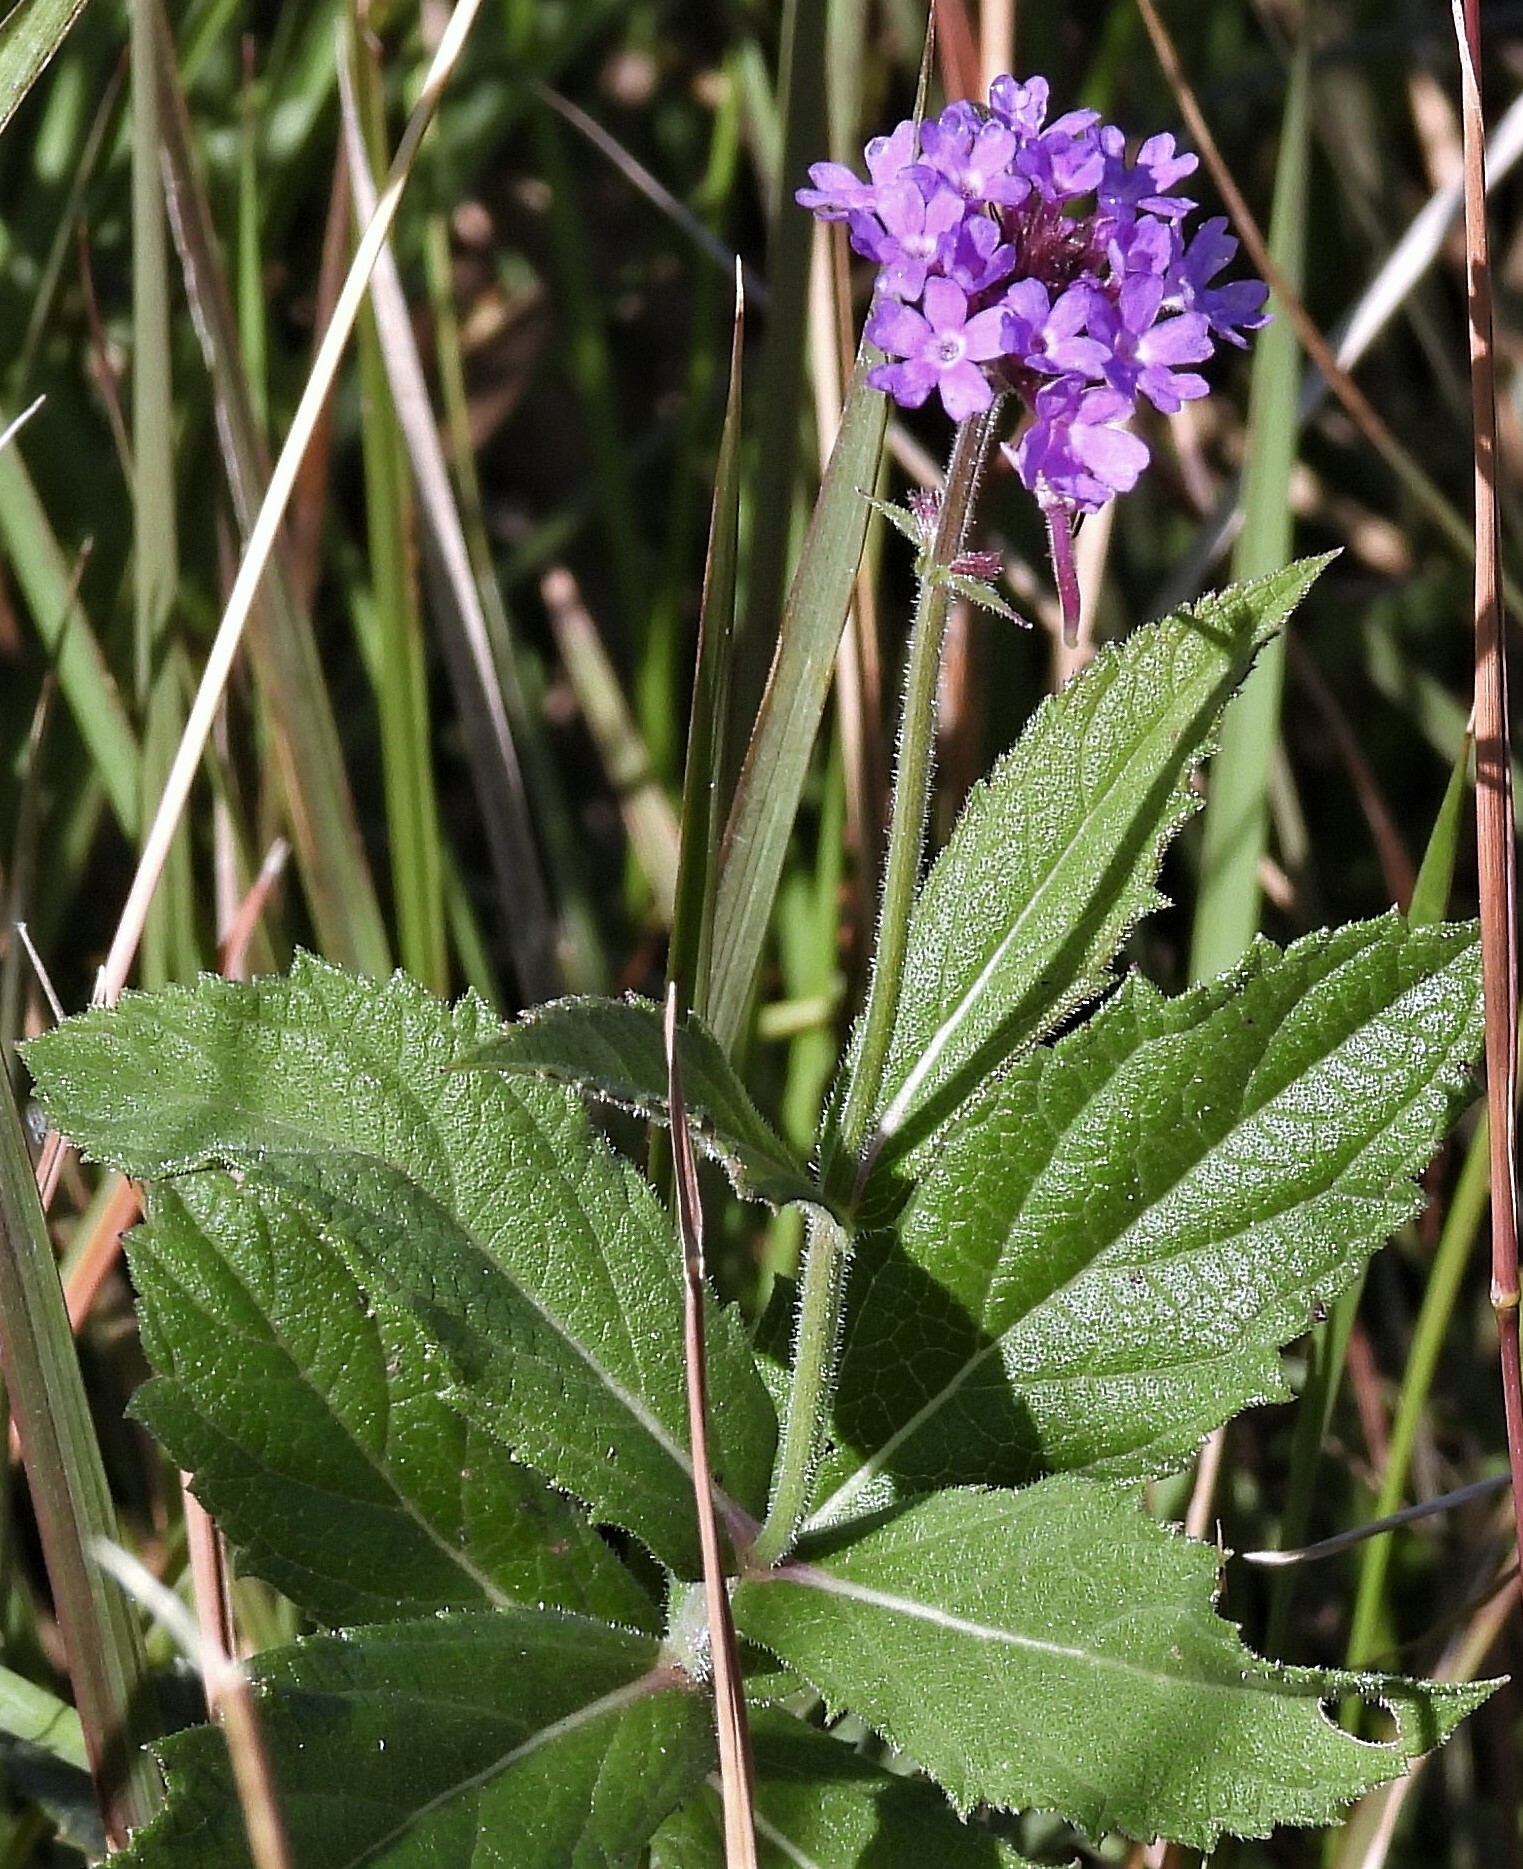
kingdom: Plantae
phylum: Tracheophyta
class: Magnoliopsida
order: Lamiales
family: Verbenaceae
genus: Verbena
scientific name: Verbena rigida
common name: Slender vervain
